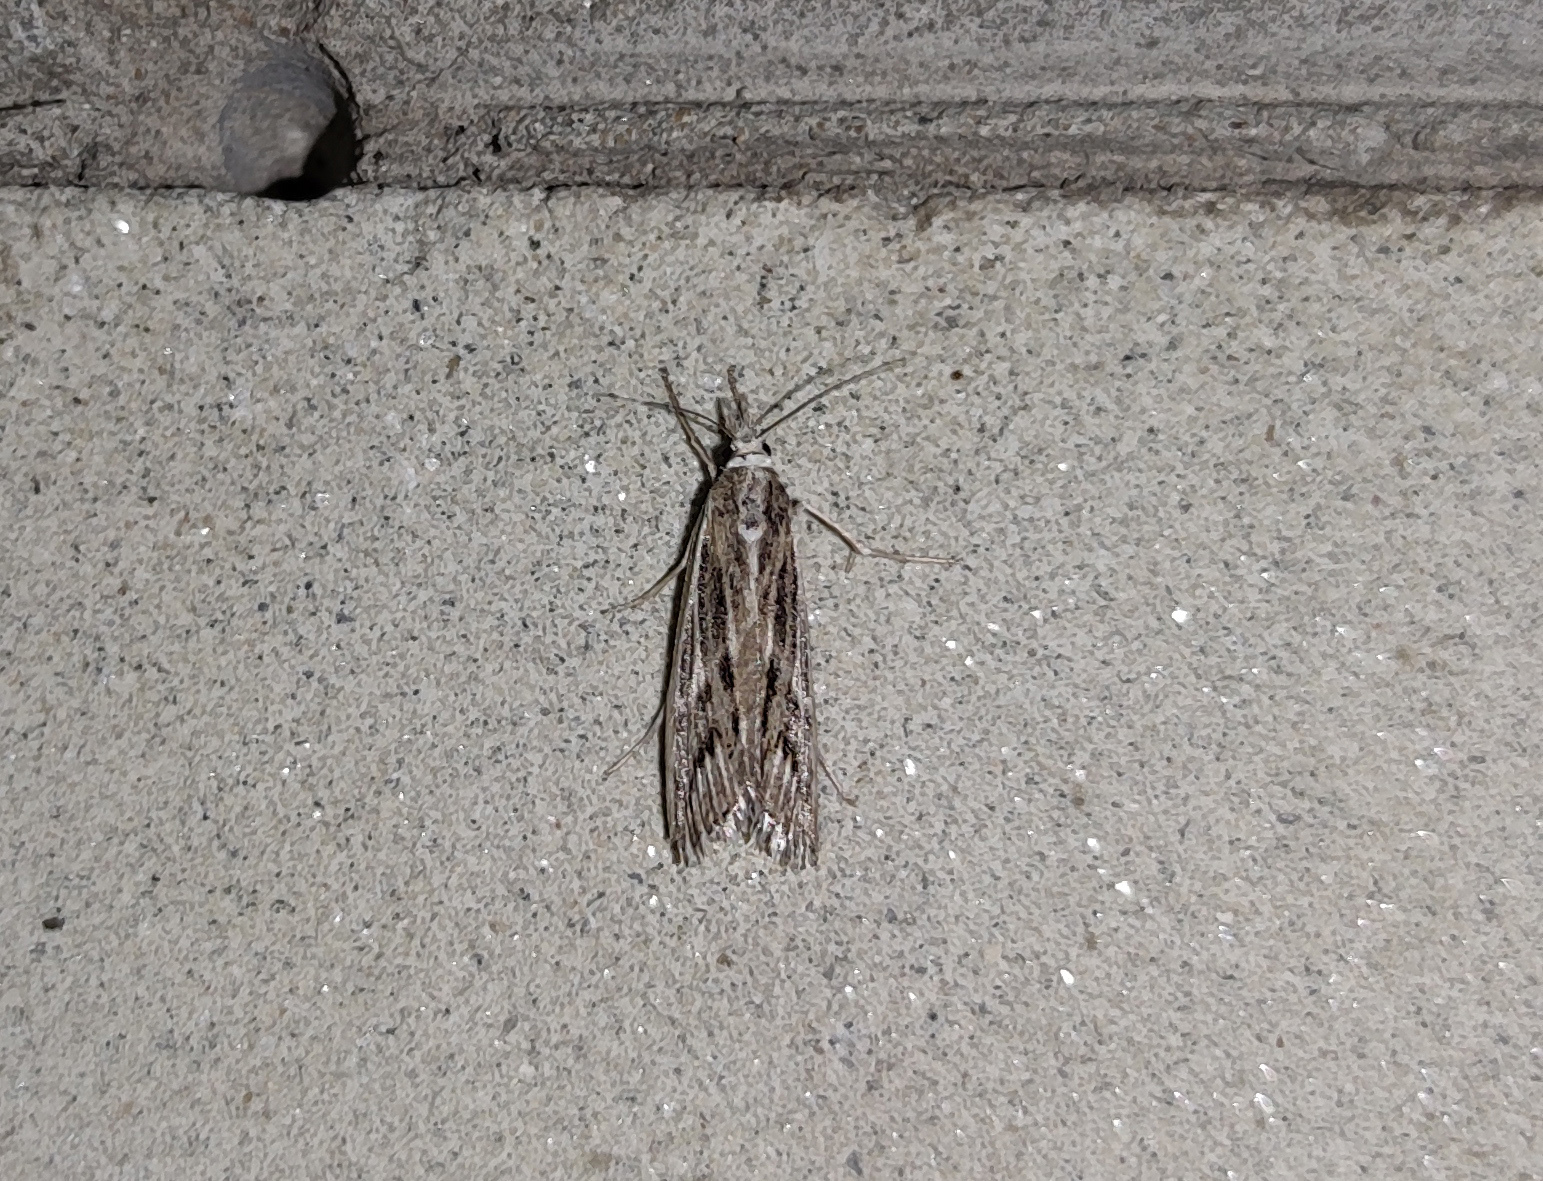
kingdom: Animalia
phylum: Arthropoda
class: Insecta
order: Lepidoptera
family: Crambidae
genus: Pediasia
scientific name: Pediasia fascelinella
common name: Banded grass-veneer
